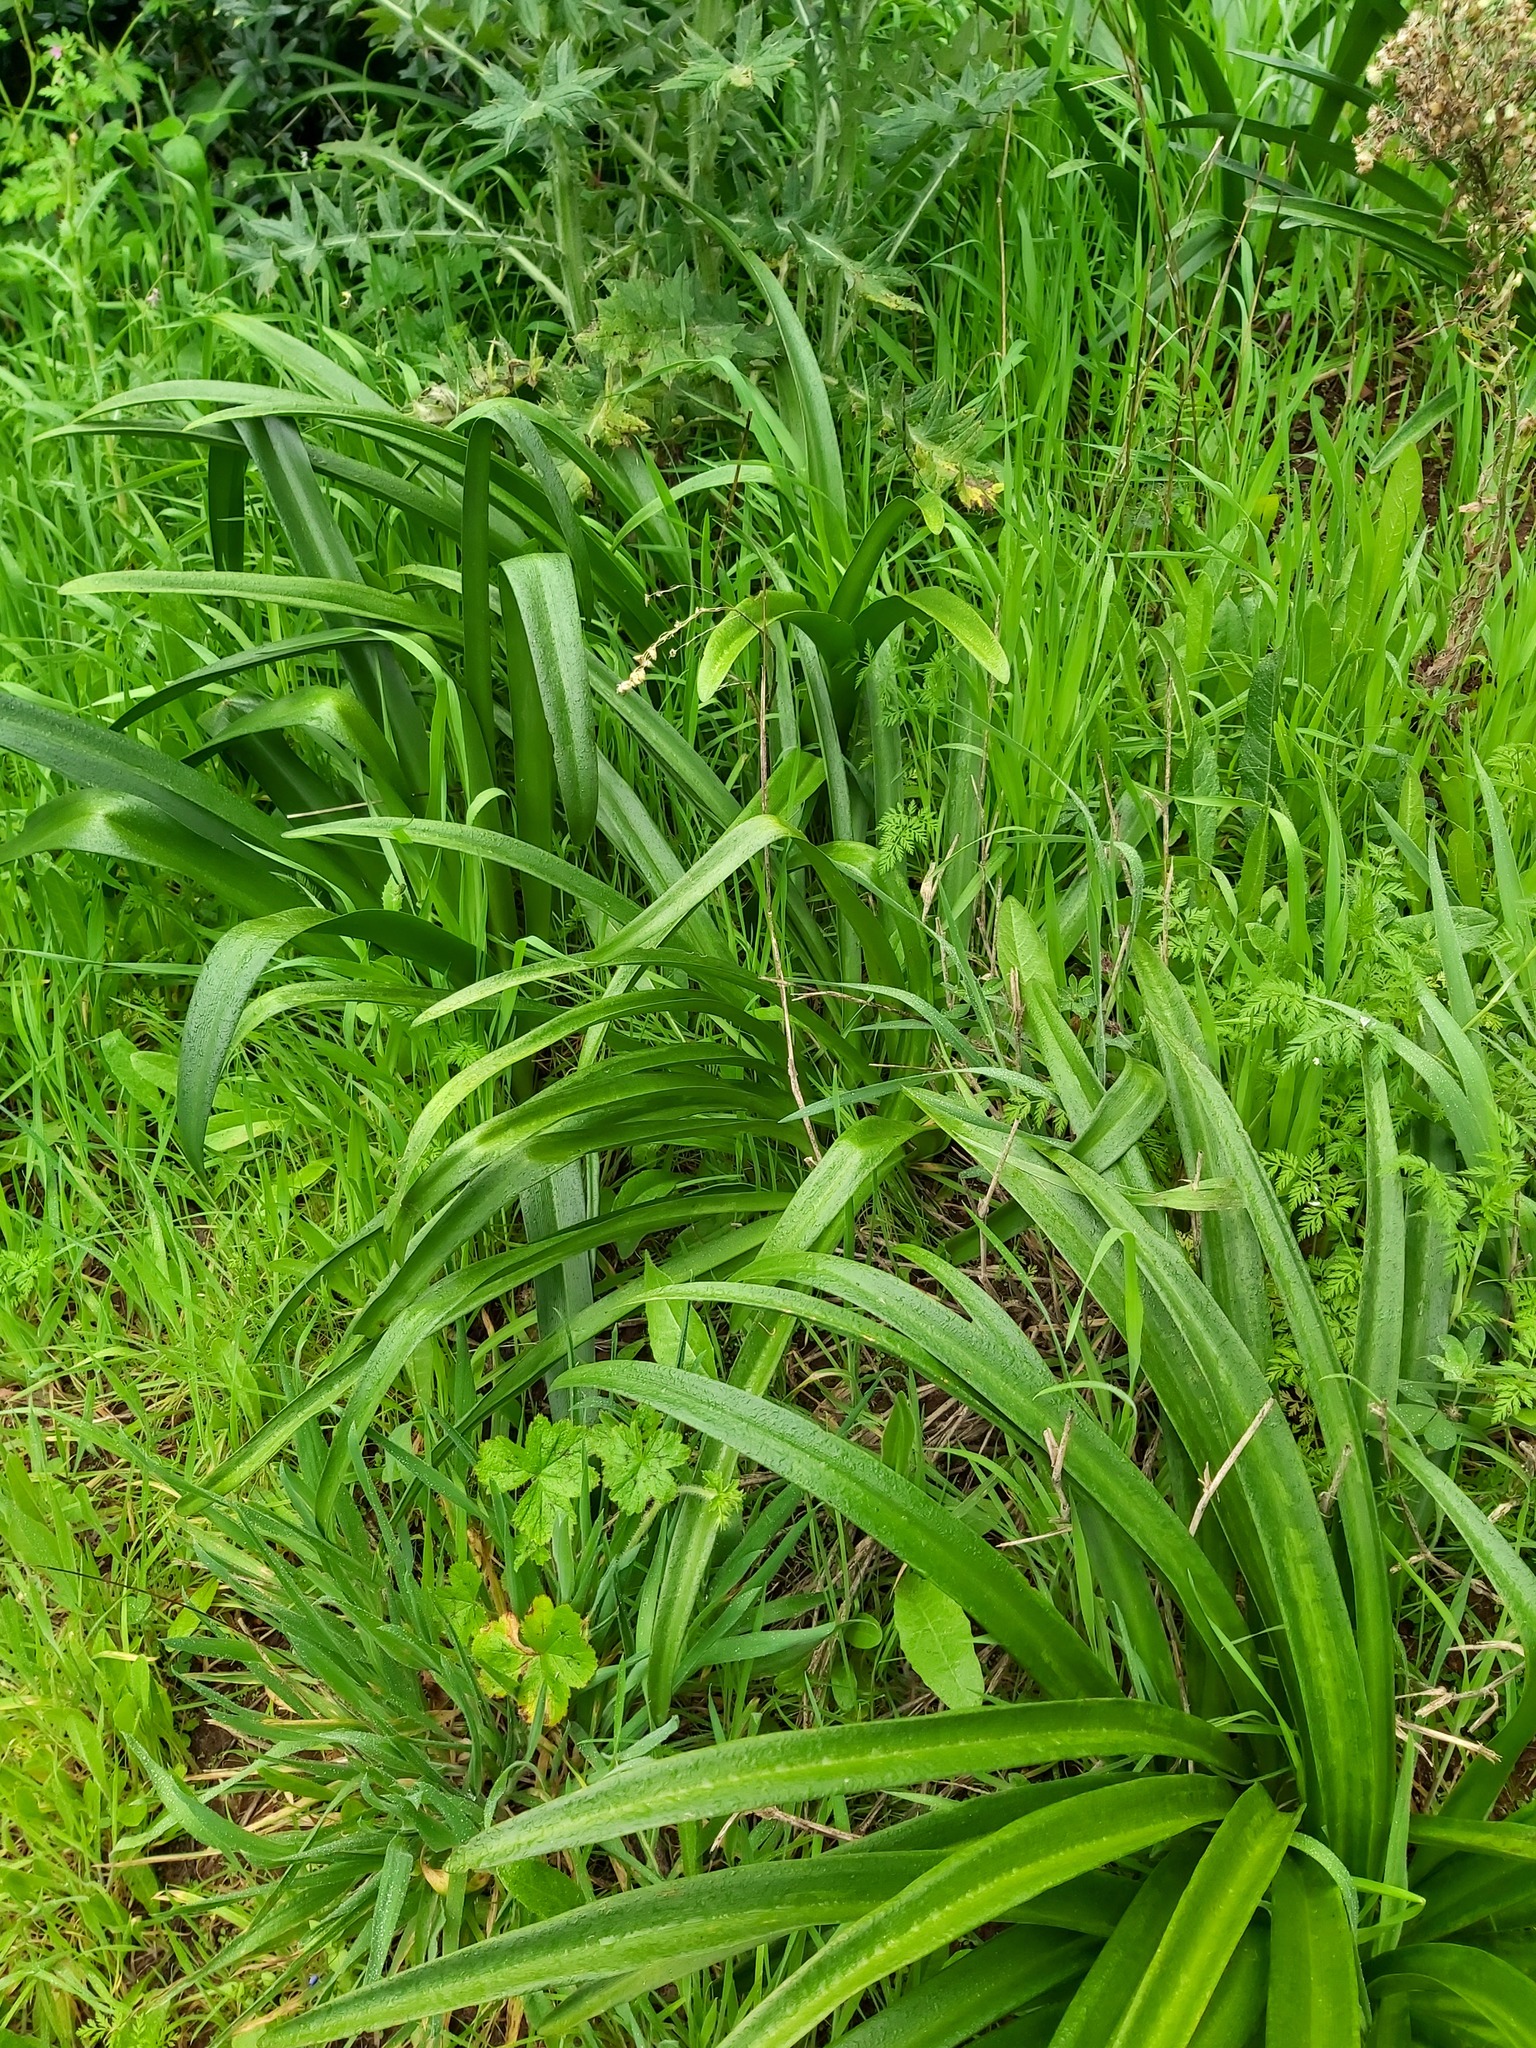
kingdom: Plantae
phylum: Tracheophyta
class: Liliopsida
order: Asparagales
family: Amaryllidaceae
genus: Amaryllis
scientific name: Amaryllis belladonna
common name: Jersey lily
